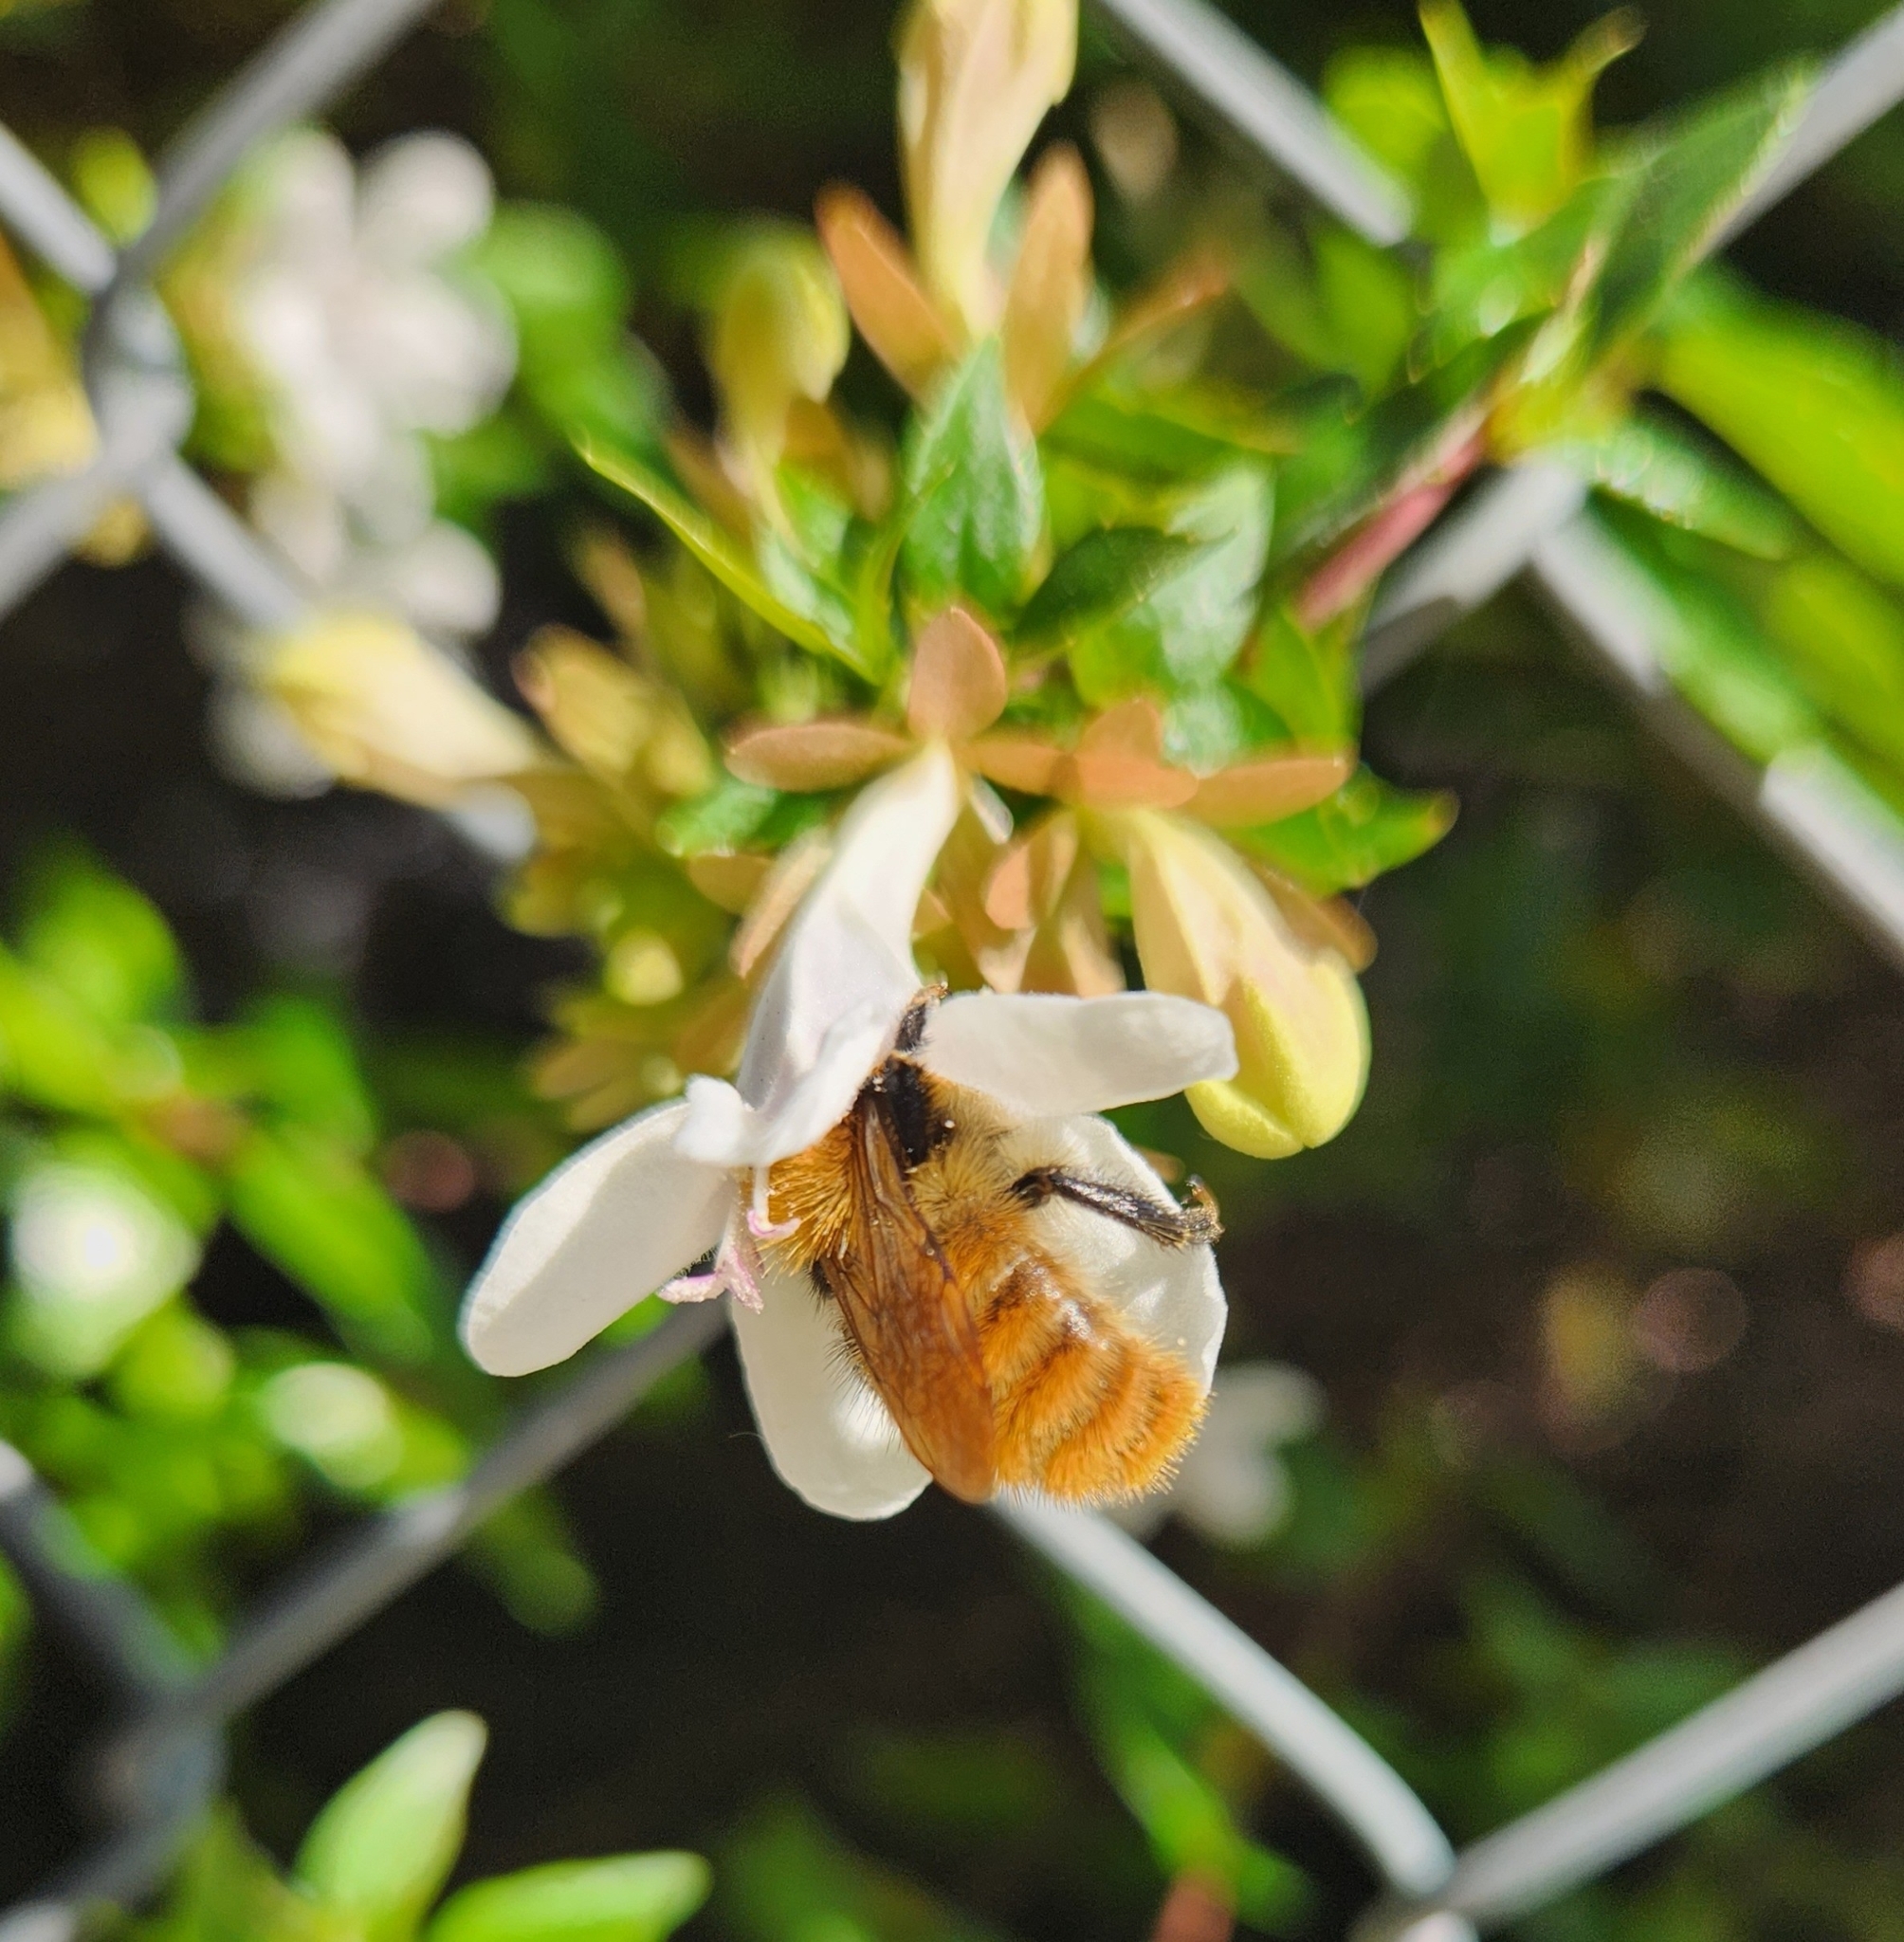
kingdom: Animalia
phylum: Arthropoda
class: Insecta
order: Hymenoptera
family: Apidae
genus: Bombus
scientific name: Bombus pascuorum
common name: Common carder bee
